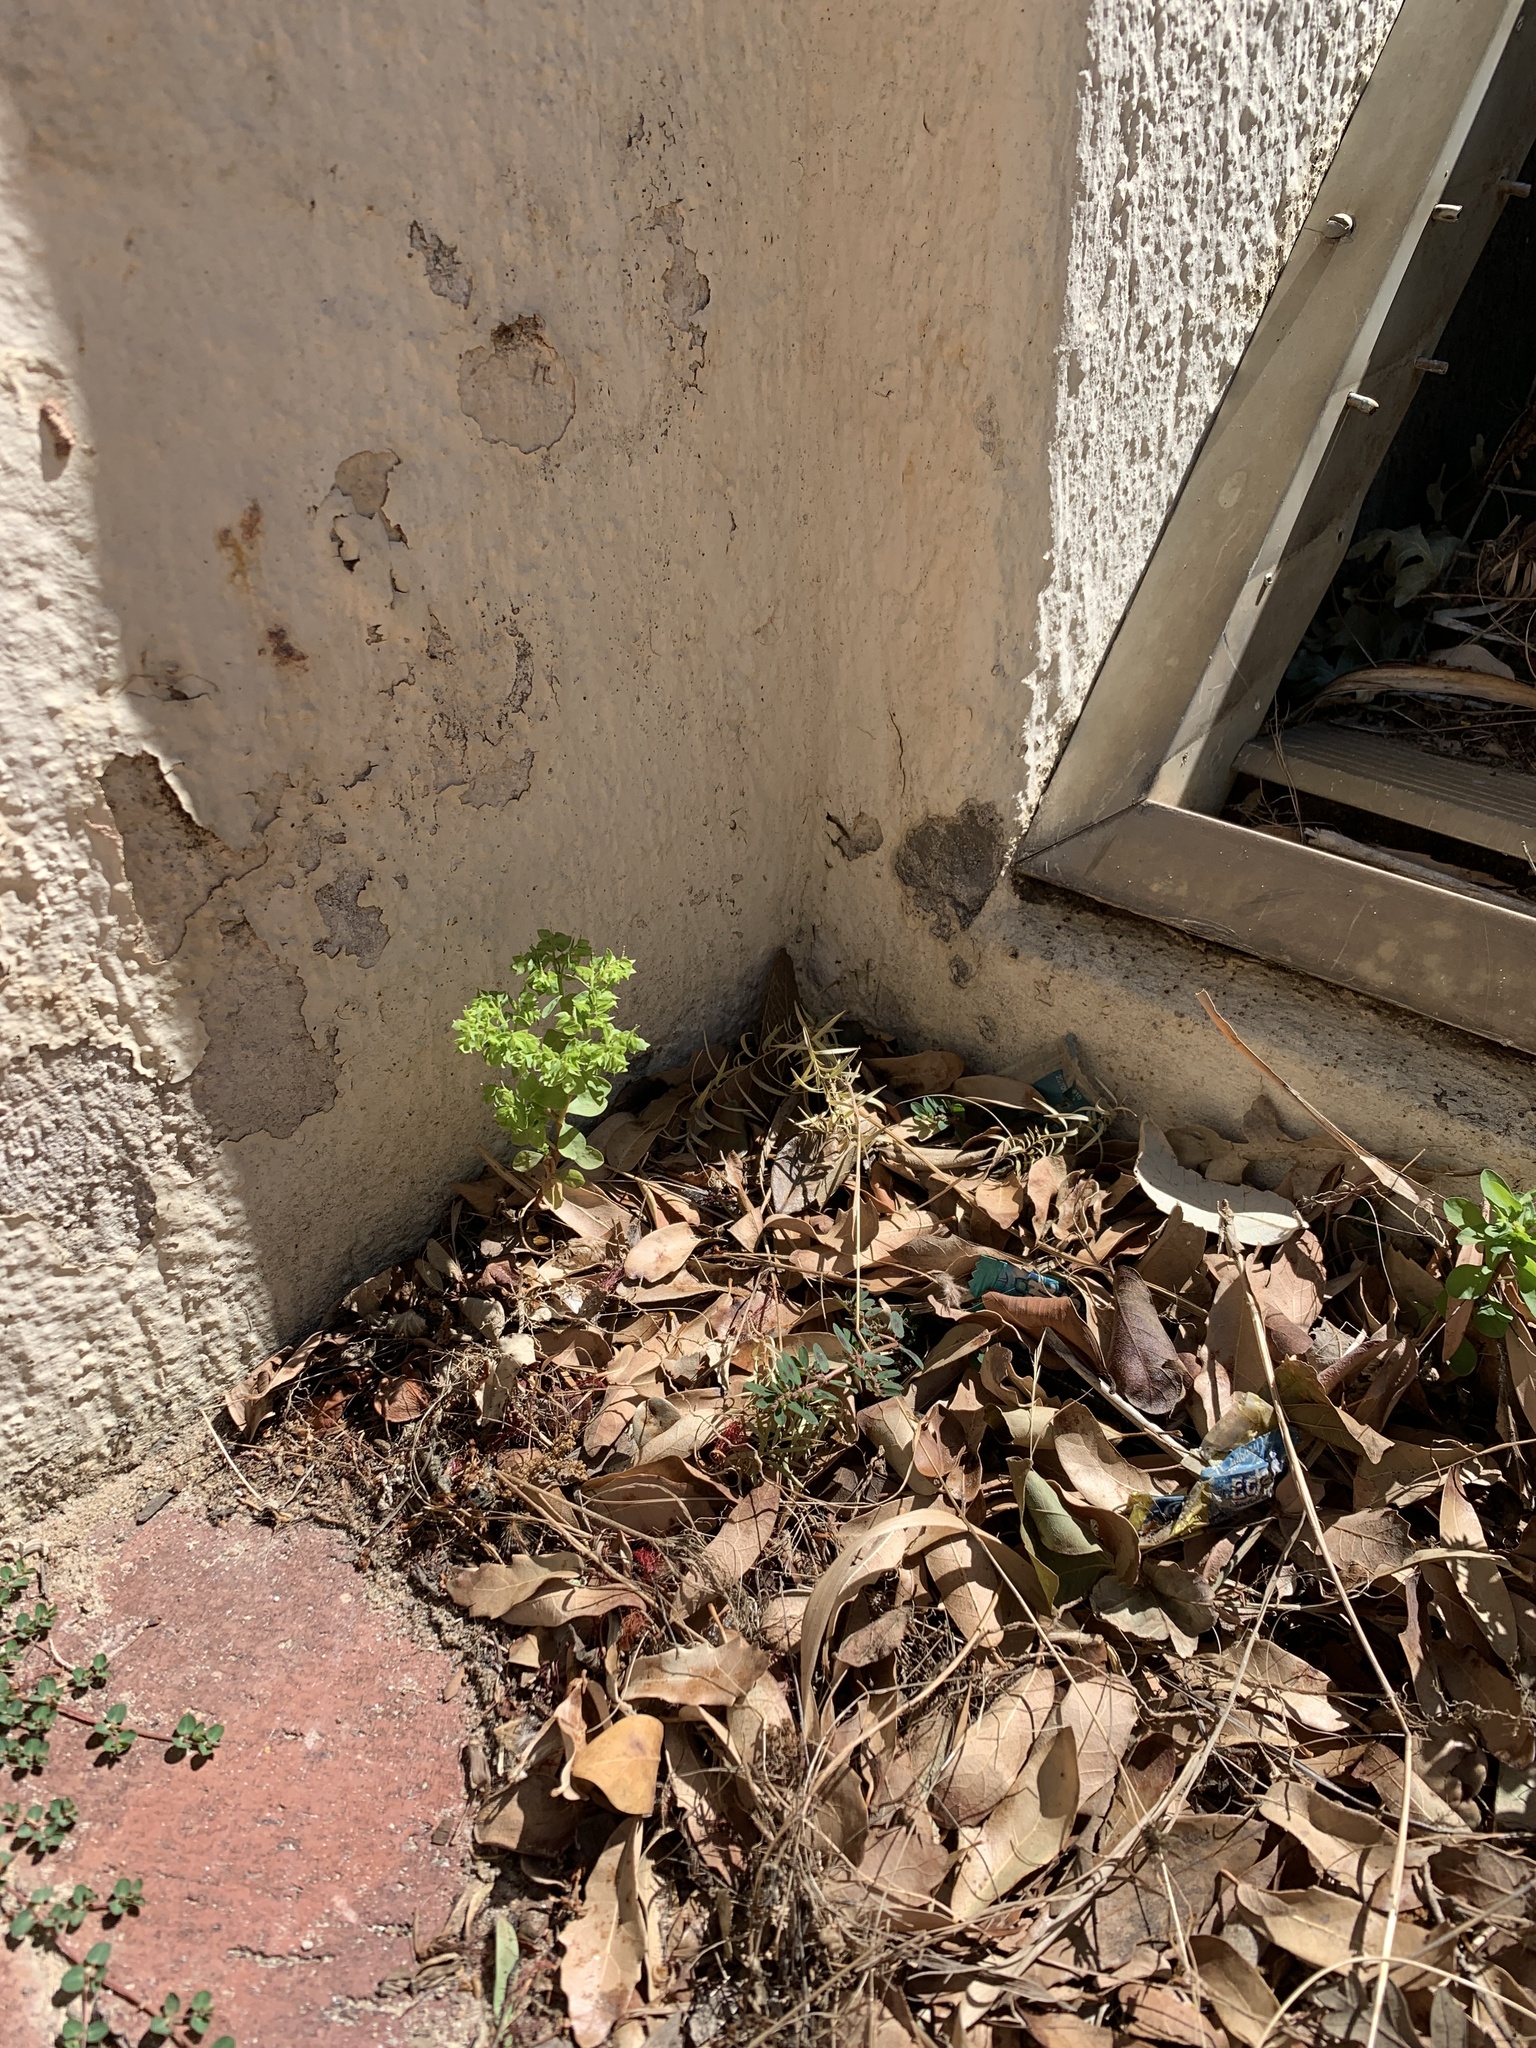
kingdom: Plantae
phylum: Tracheophyta
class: Magnoliopsida
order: Malpighiales
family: Euphorbiaceae
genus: Euphorbia
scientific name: Euphorbia peplus
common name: Petty spurge
